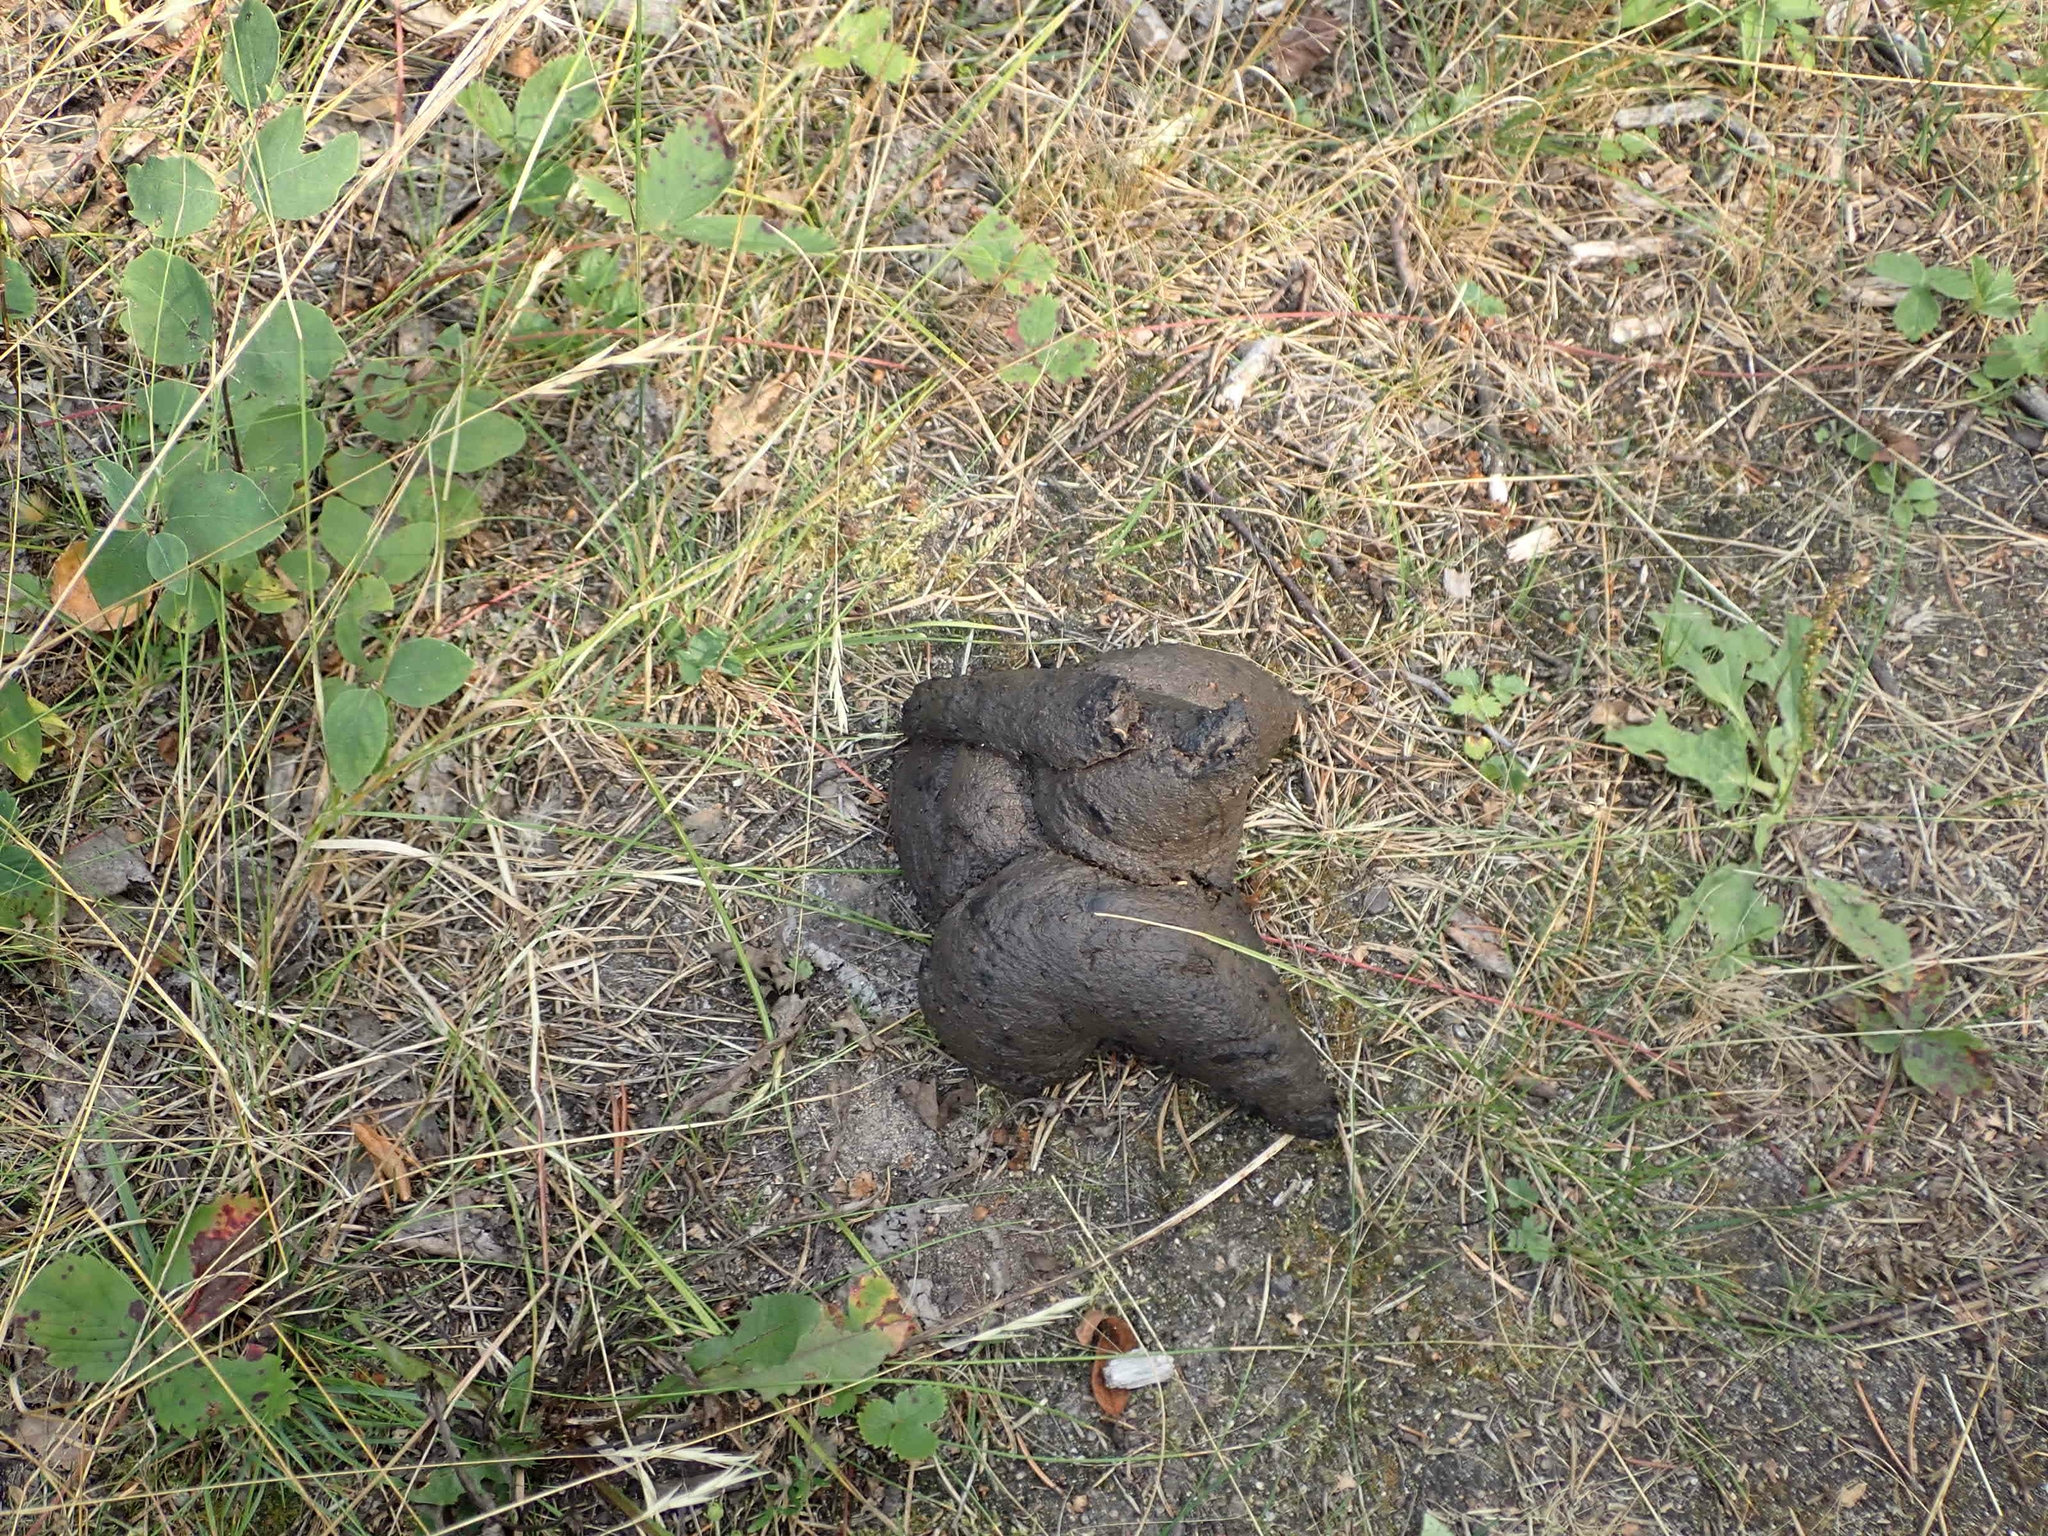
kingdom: Animalia
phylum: Chordata
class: Mammalia
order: Carnivora
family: Ursidae
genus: Ursus
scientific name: Ursus americanus
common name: American black bear
